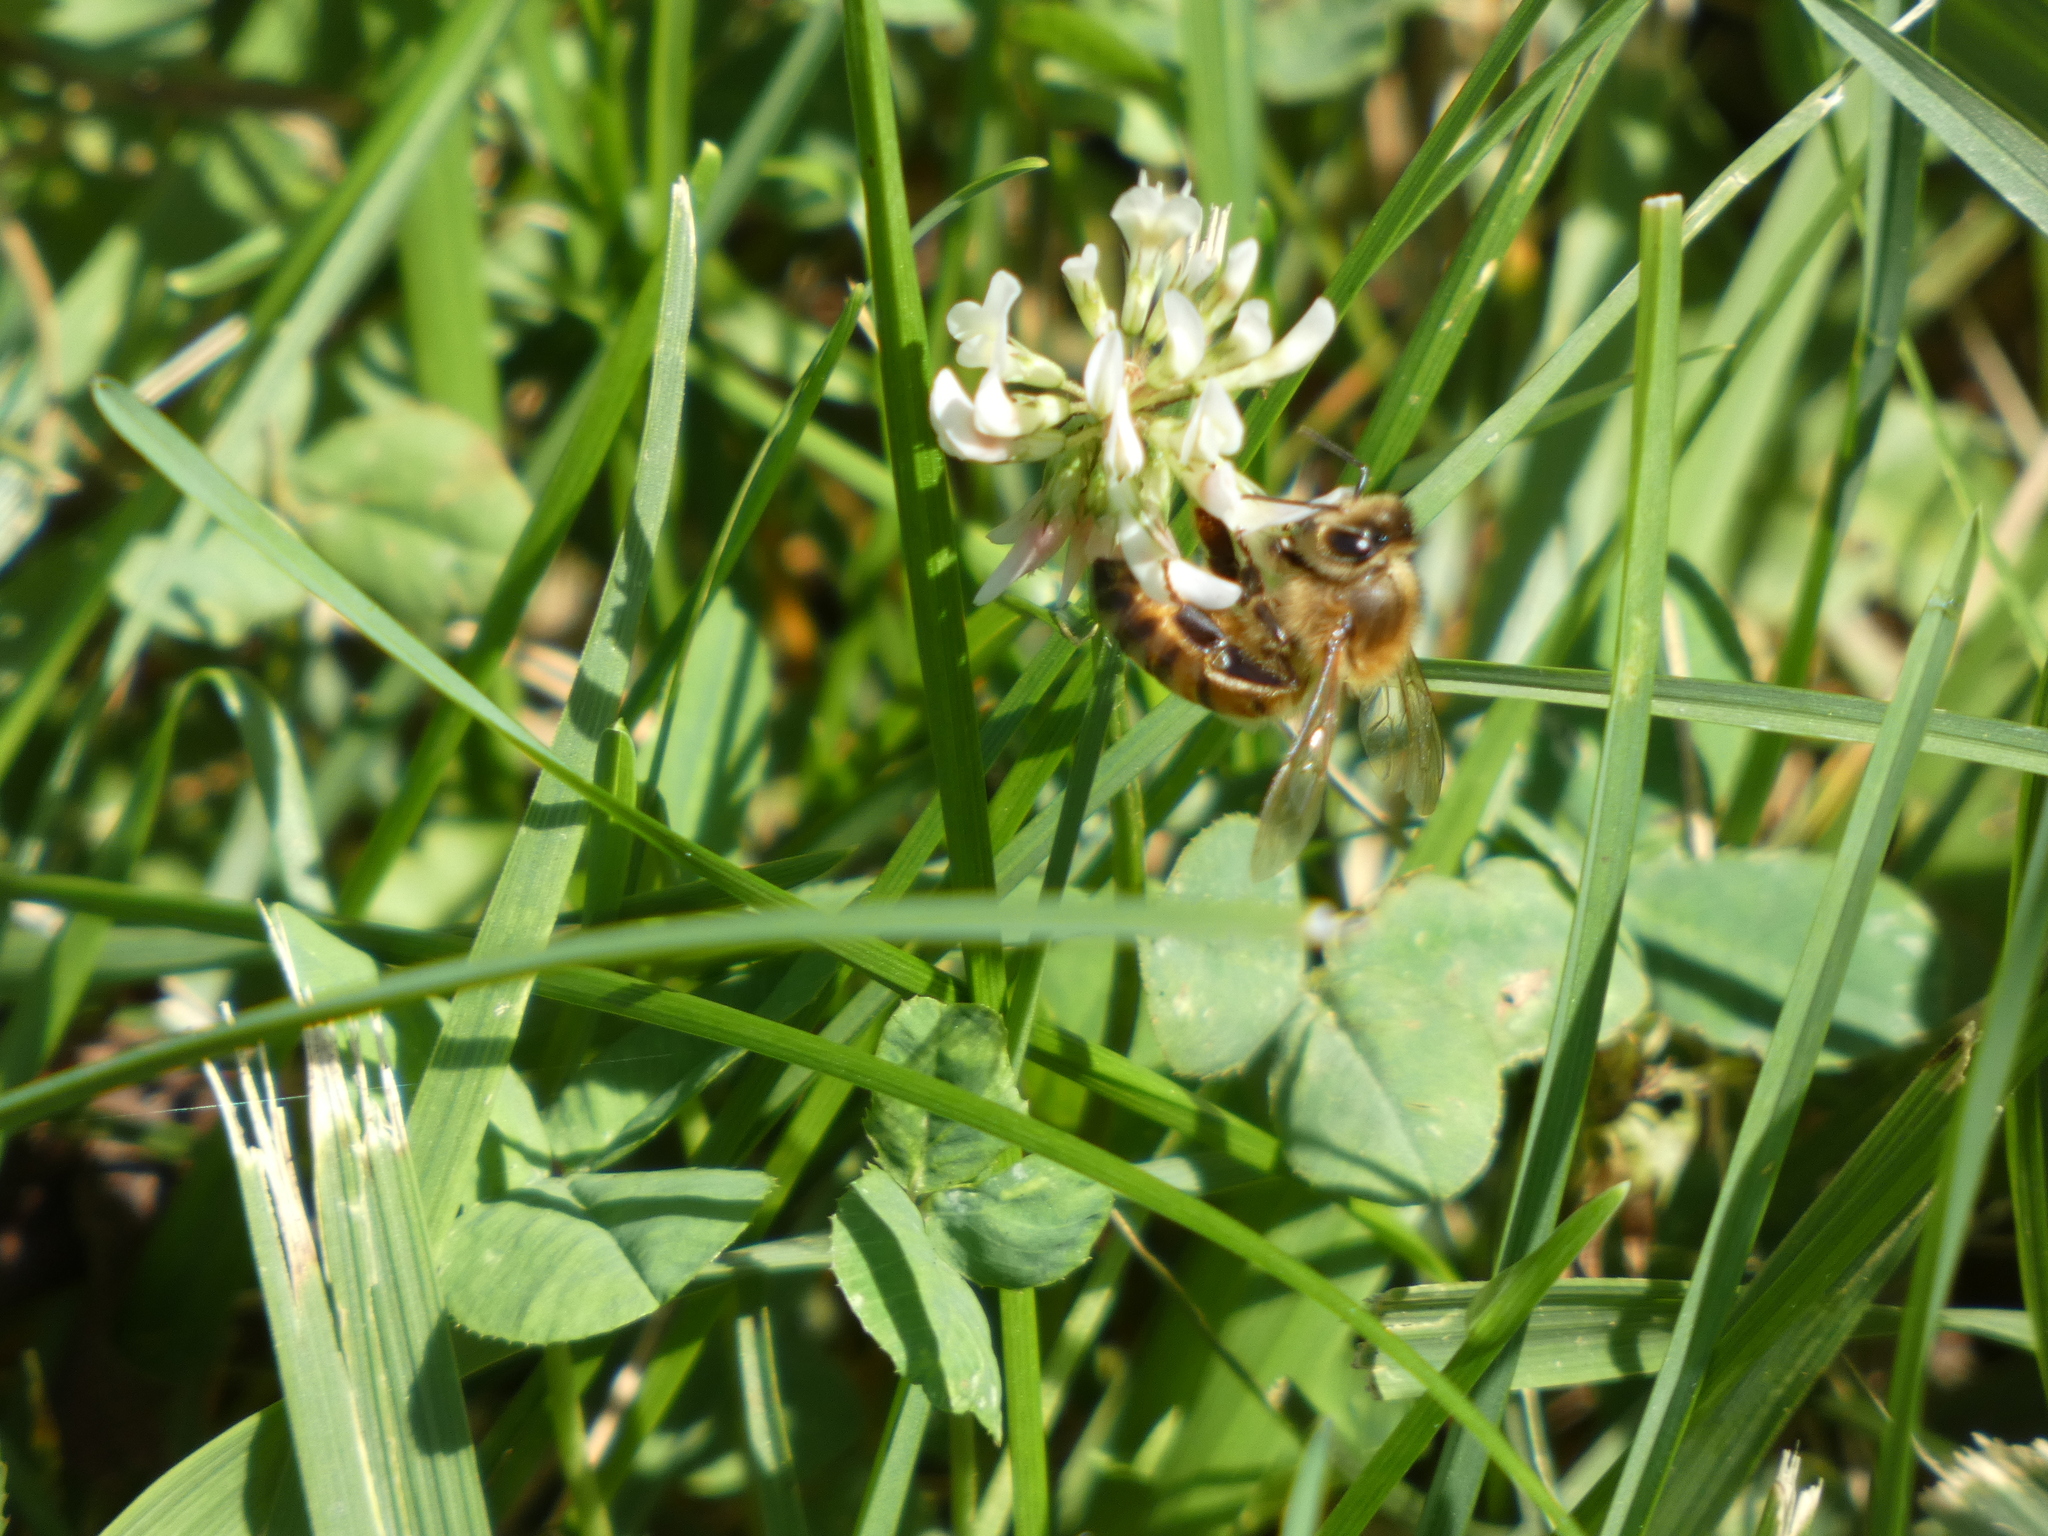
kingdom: Animalia
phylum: Arthropoda
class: Insecta
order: Hymenoptera
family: Apidae
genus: Apis
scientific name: Apis mellifera
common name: Honey bee
